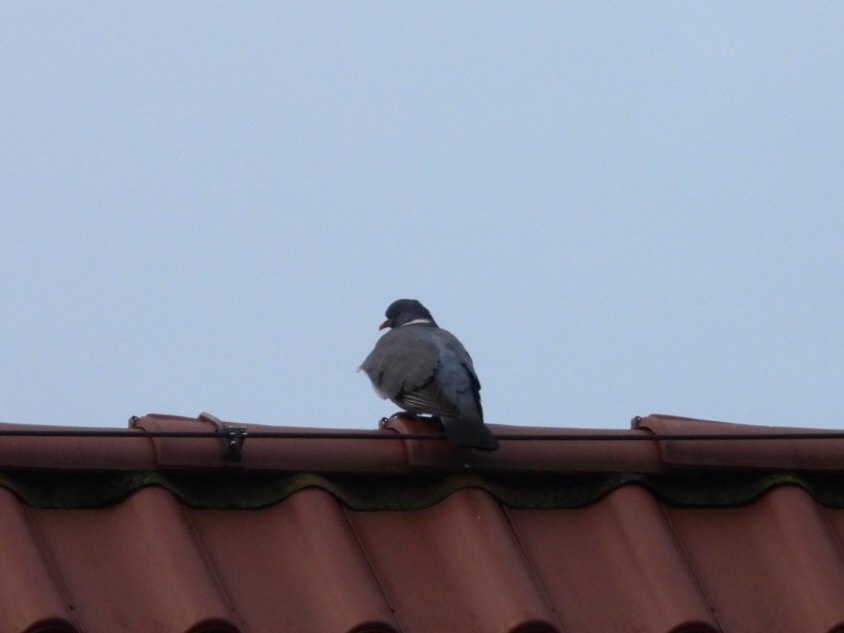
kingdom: Animalia
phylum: Chordata
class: Aves
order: Columbiformes
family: Columbidae
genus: Columba
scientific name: Columba palumbus
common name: Common wood pigeon
